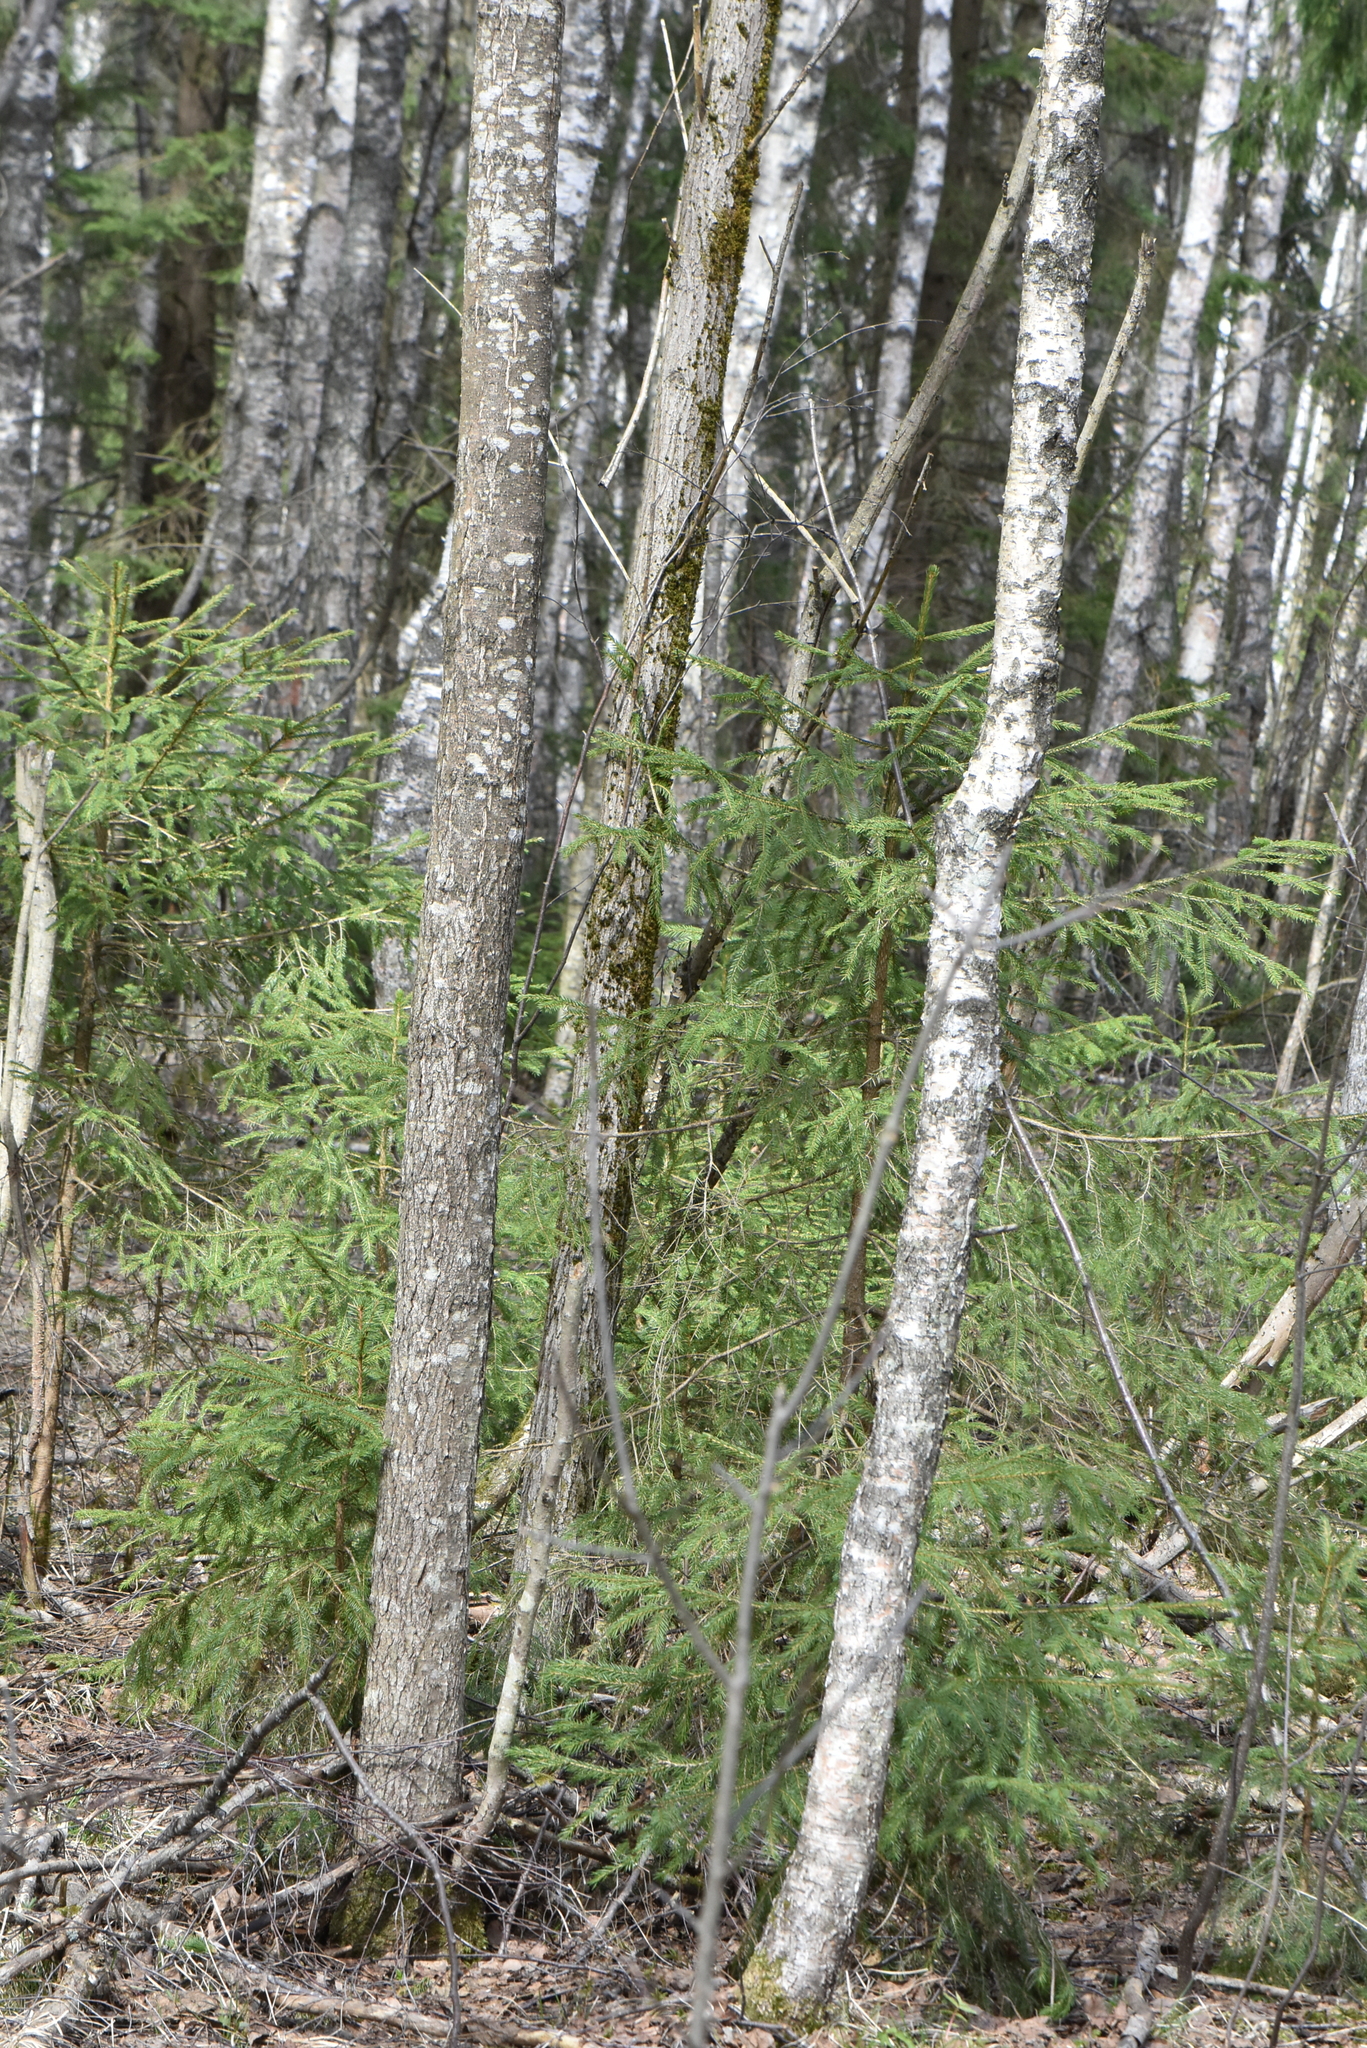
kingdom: Plantae
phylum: Tracheophyta
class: Pinopsida
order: Pinales
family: Pinaceae
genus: Picea
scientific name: Picea abies
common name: Norway spruce
